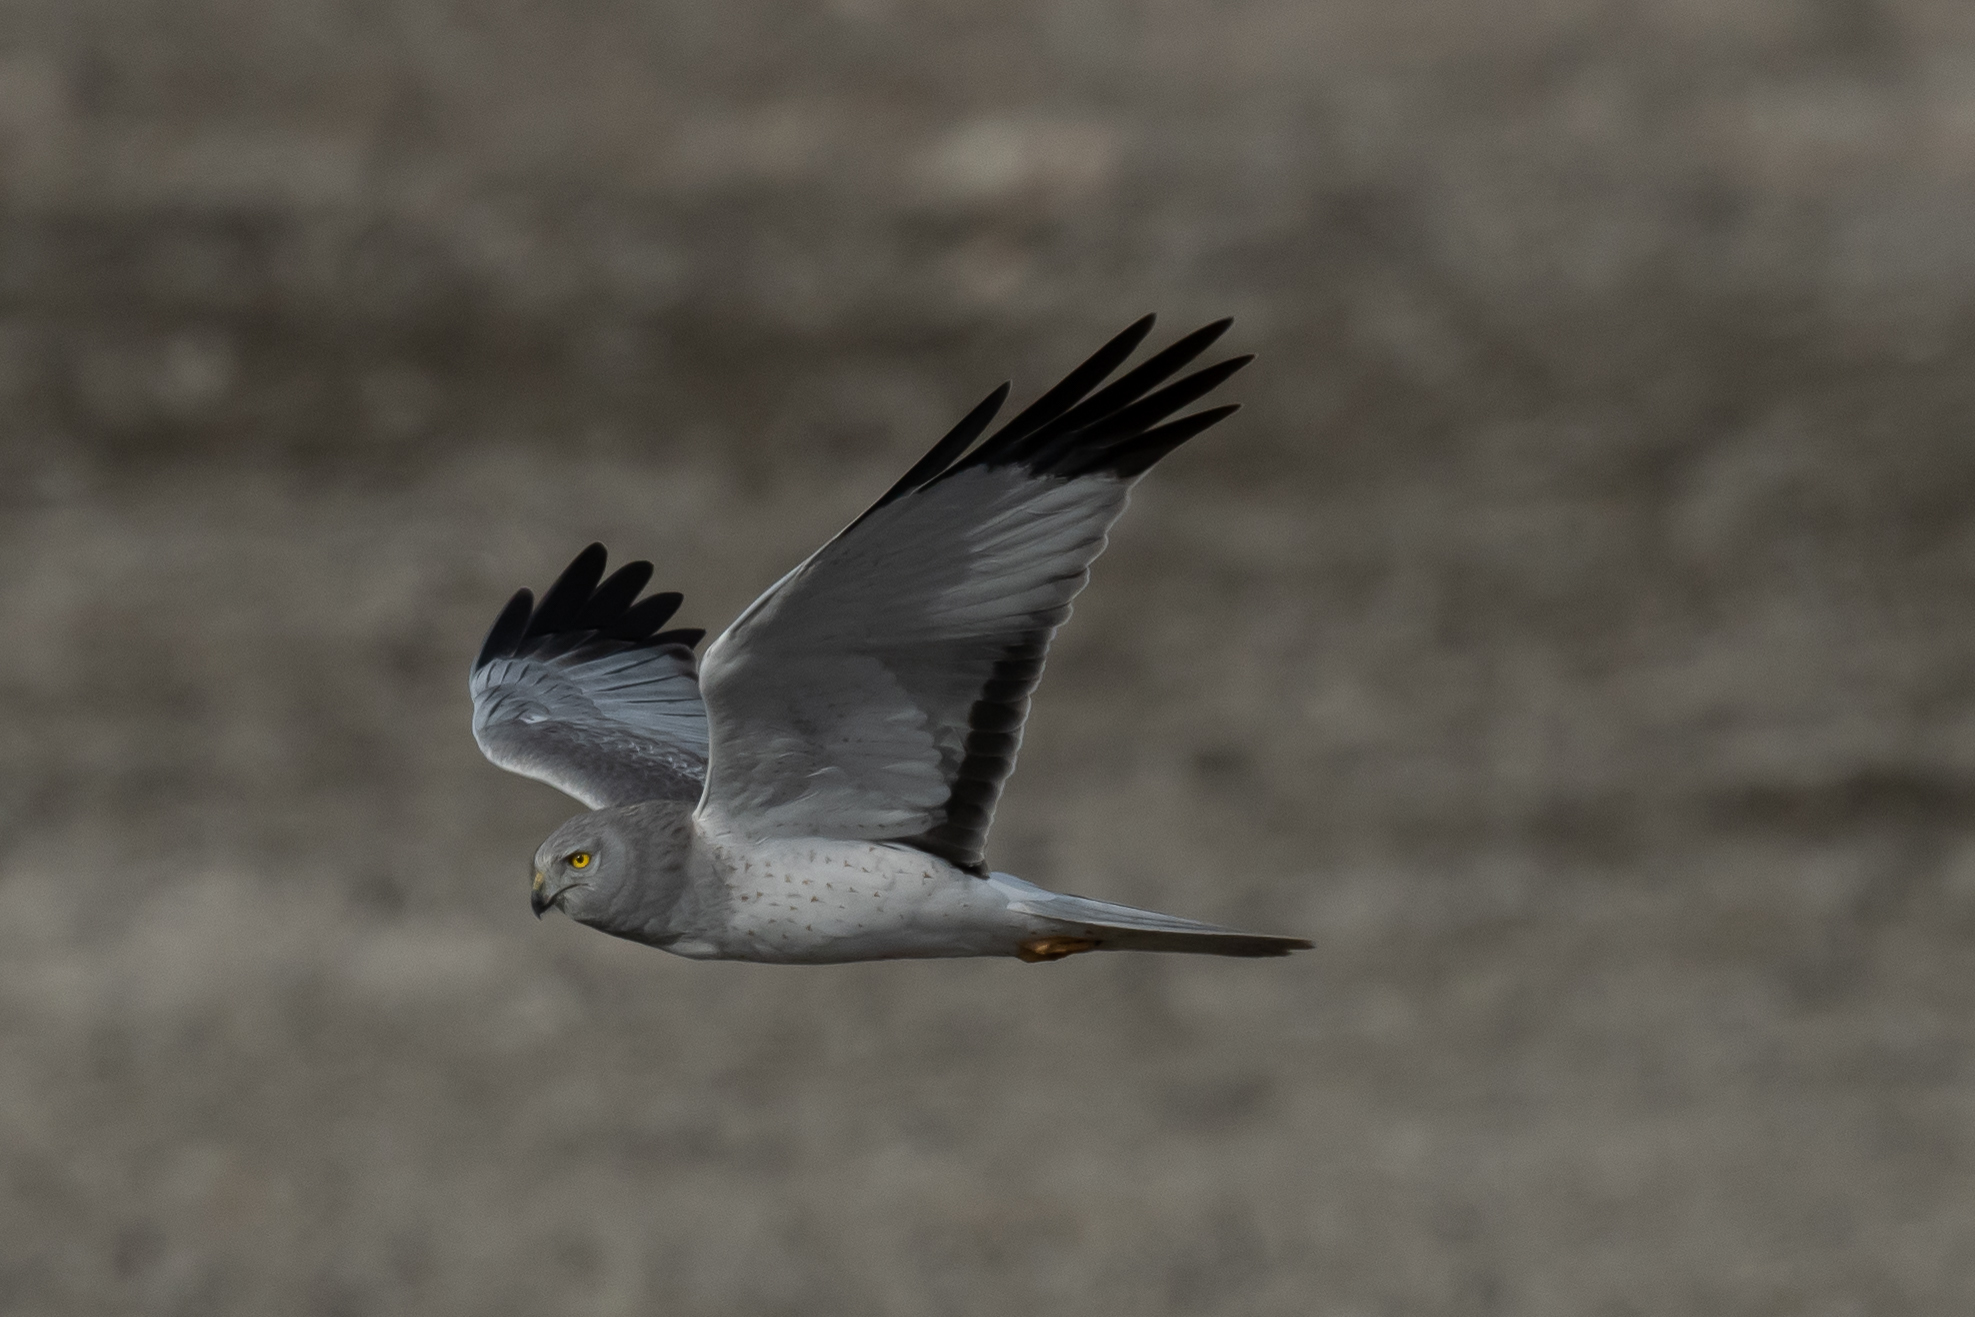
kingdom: Animalia
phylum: Chordata
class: Aves
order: Accipitriformes
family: Accipitridae
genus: Circus
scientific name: Circus cyaneus
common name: Hen harrier
